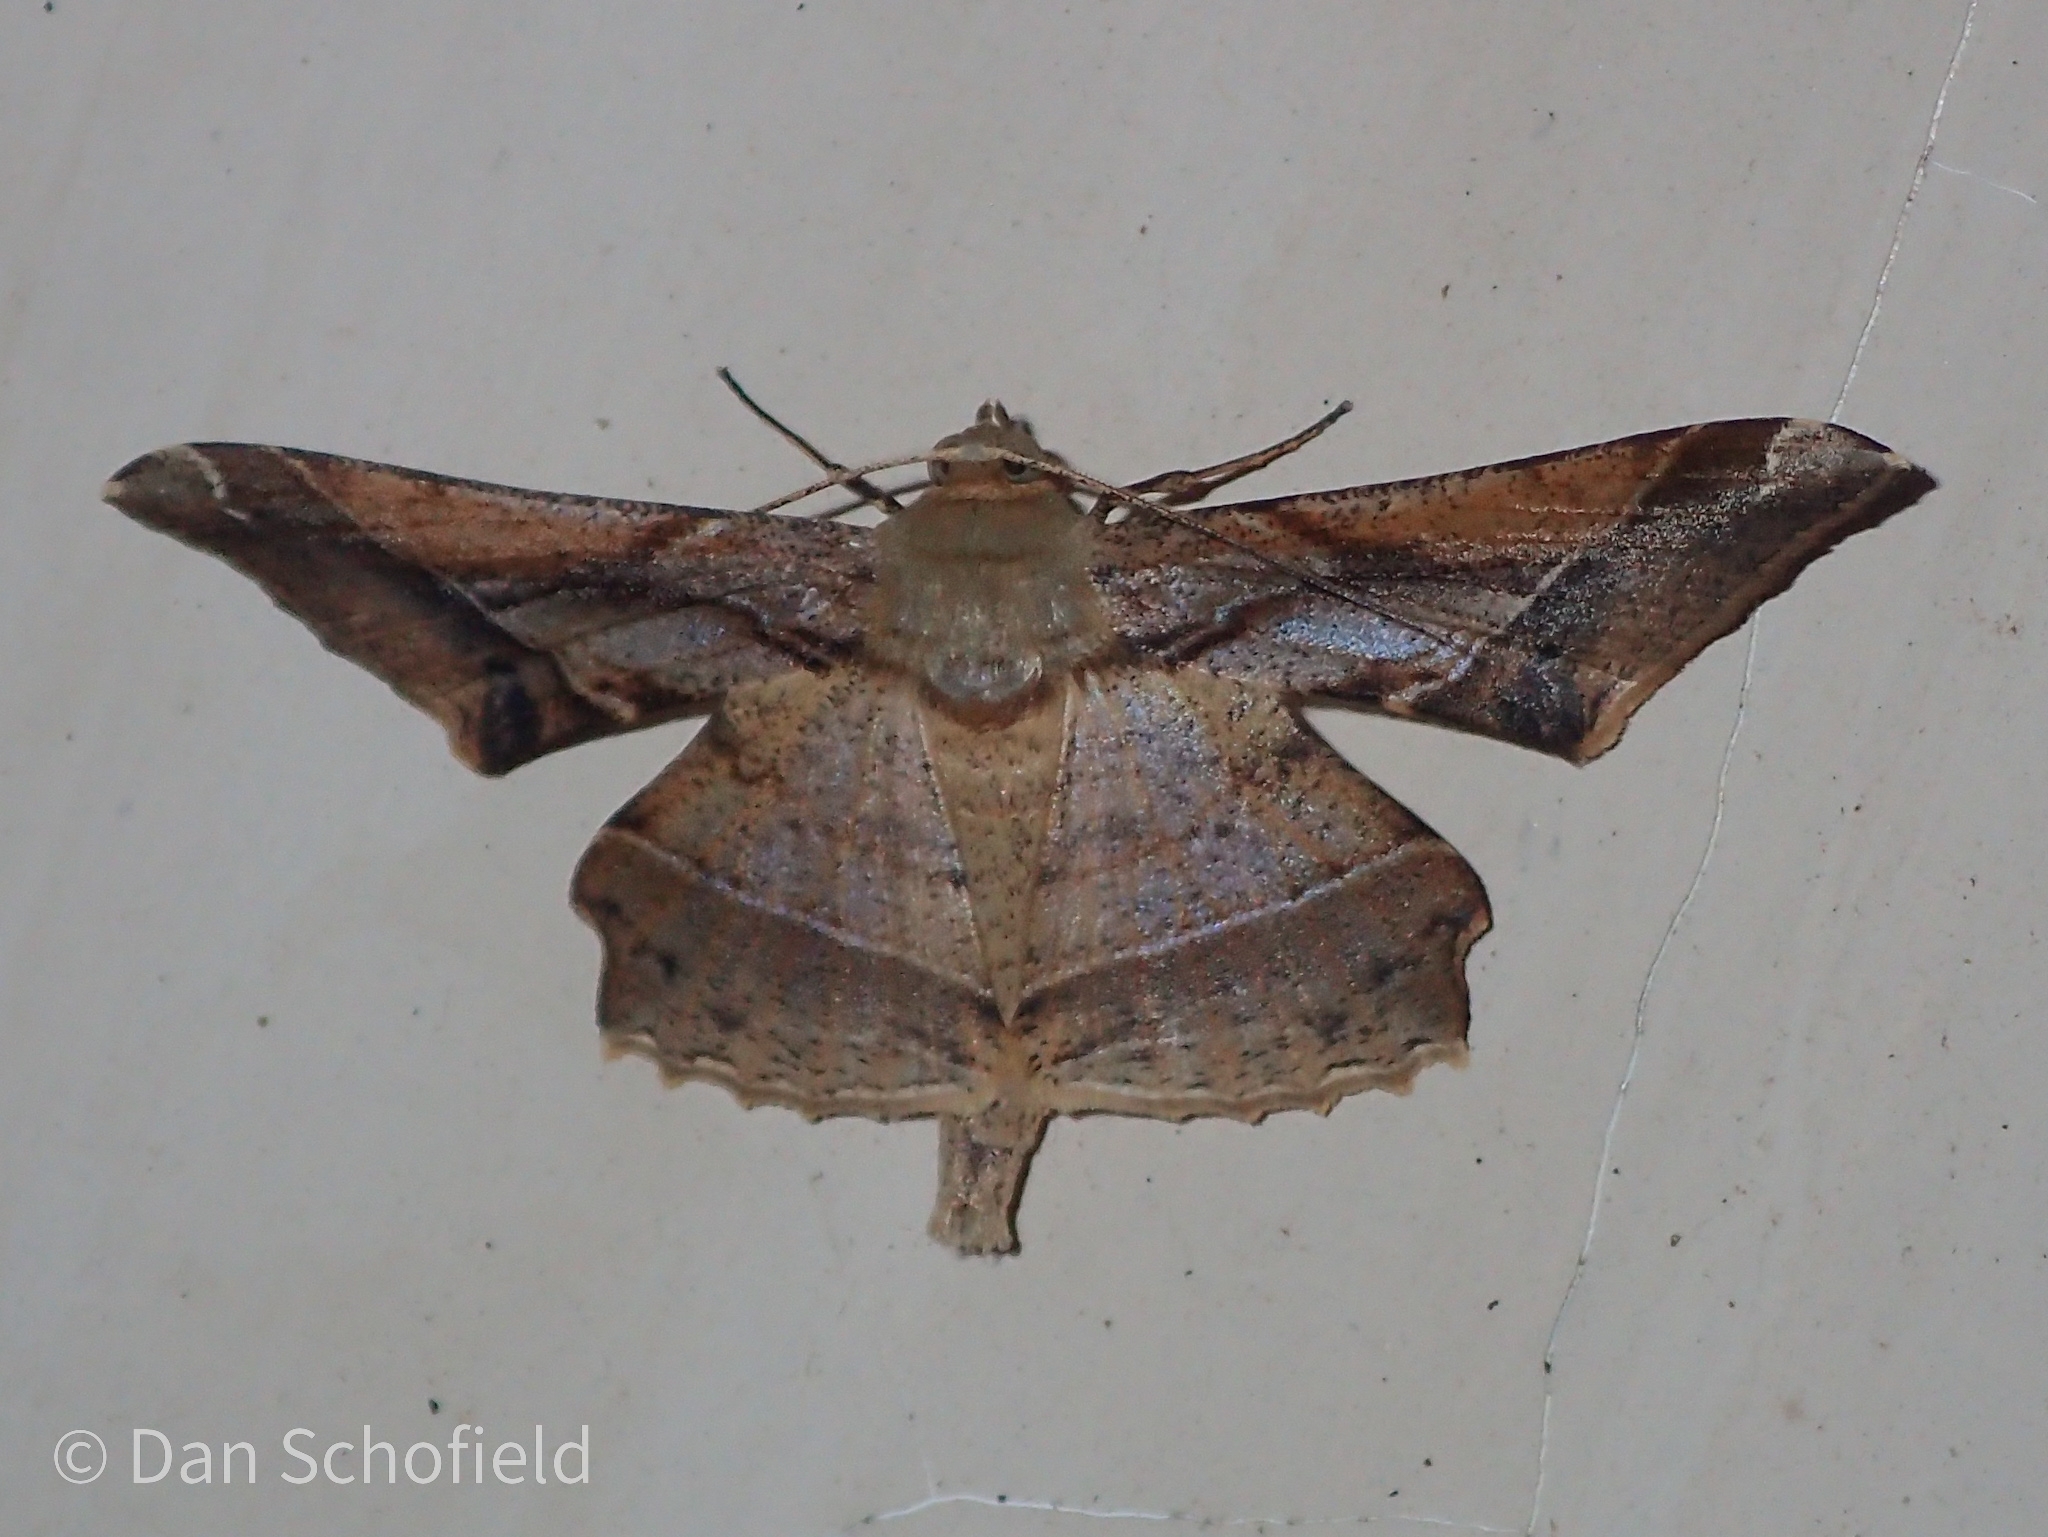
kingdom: Animalia
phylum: Arthropoda
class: Insecta
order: Lepidoptera
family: Geometridae
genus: Krananda
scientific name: Krananda latimarginaria
